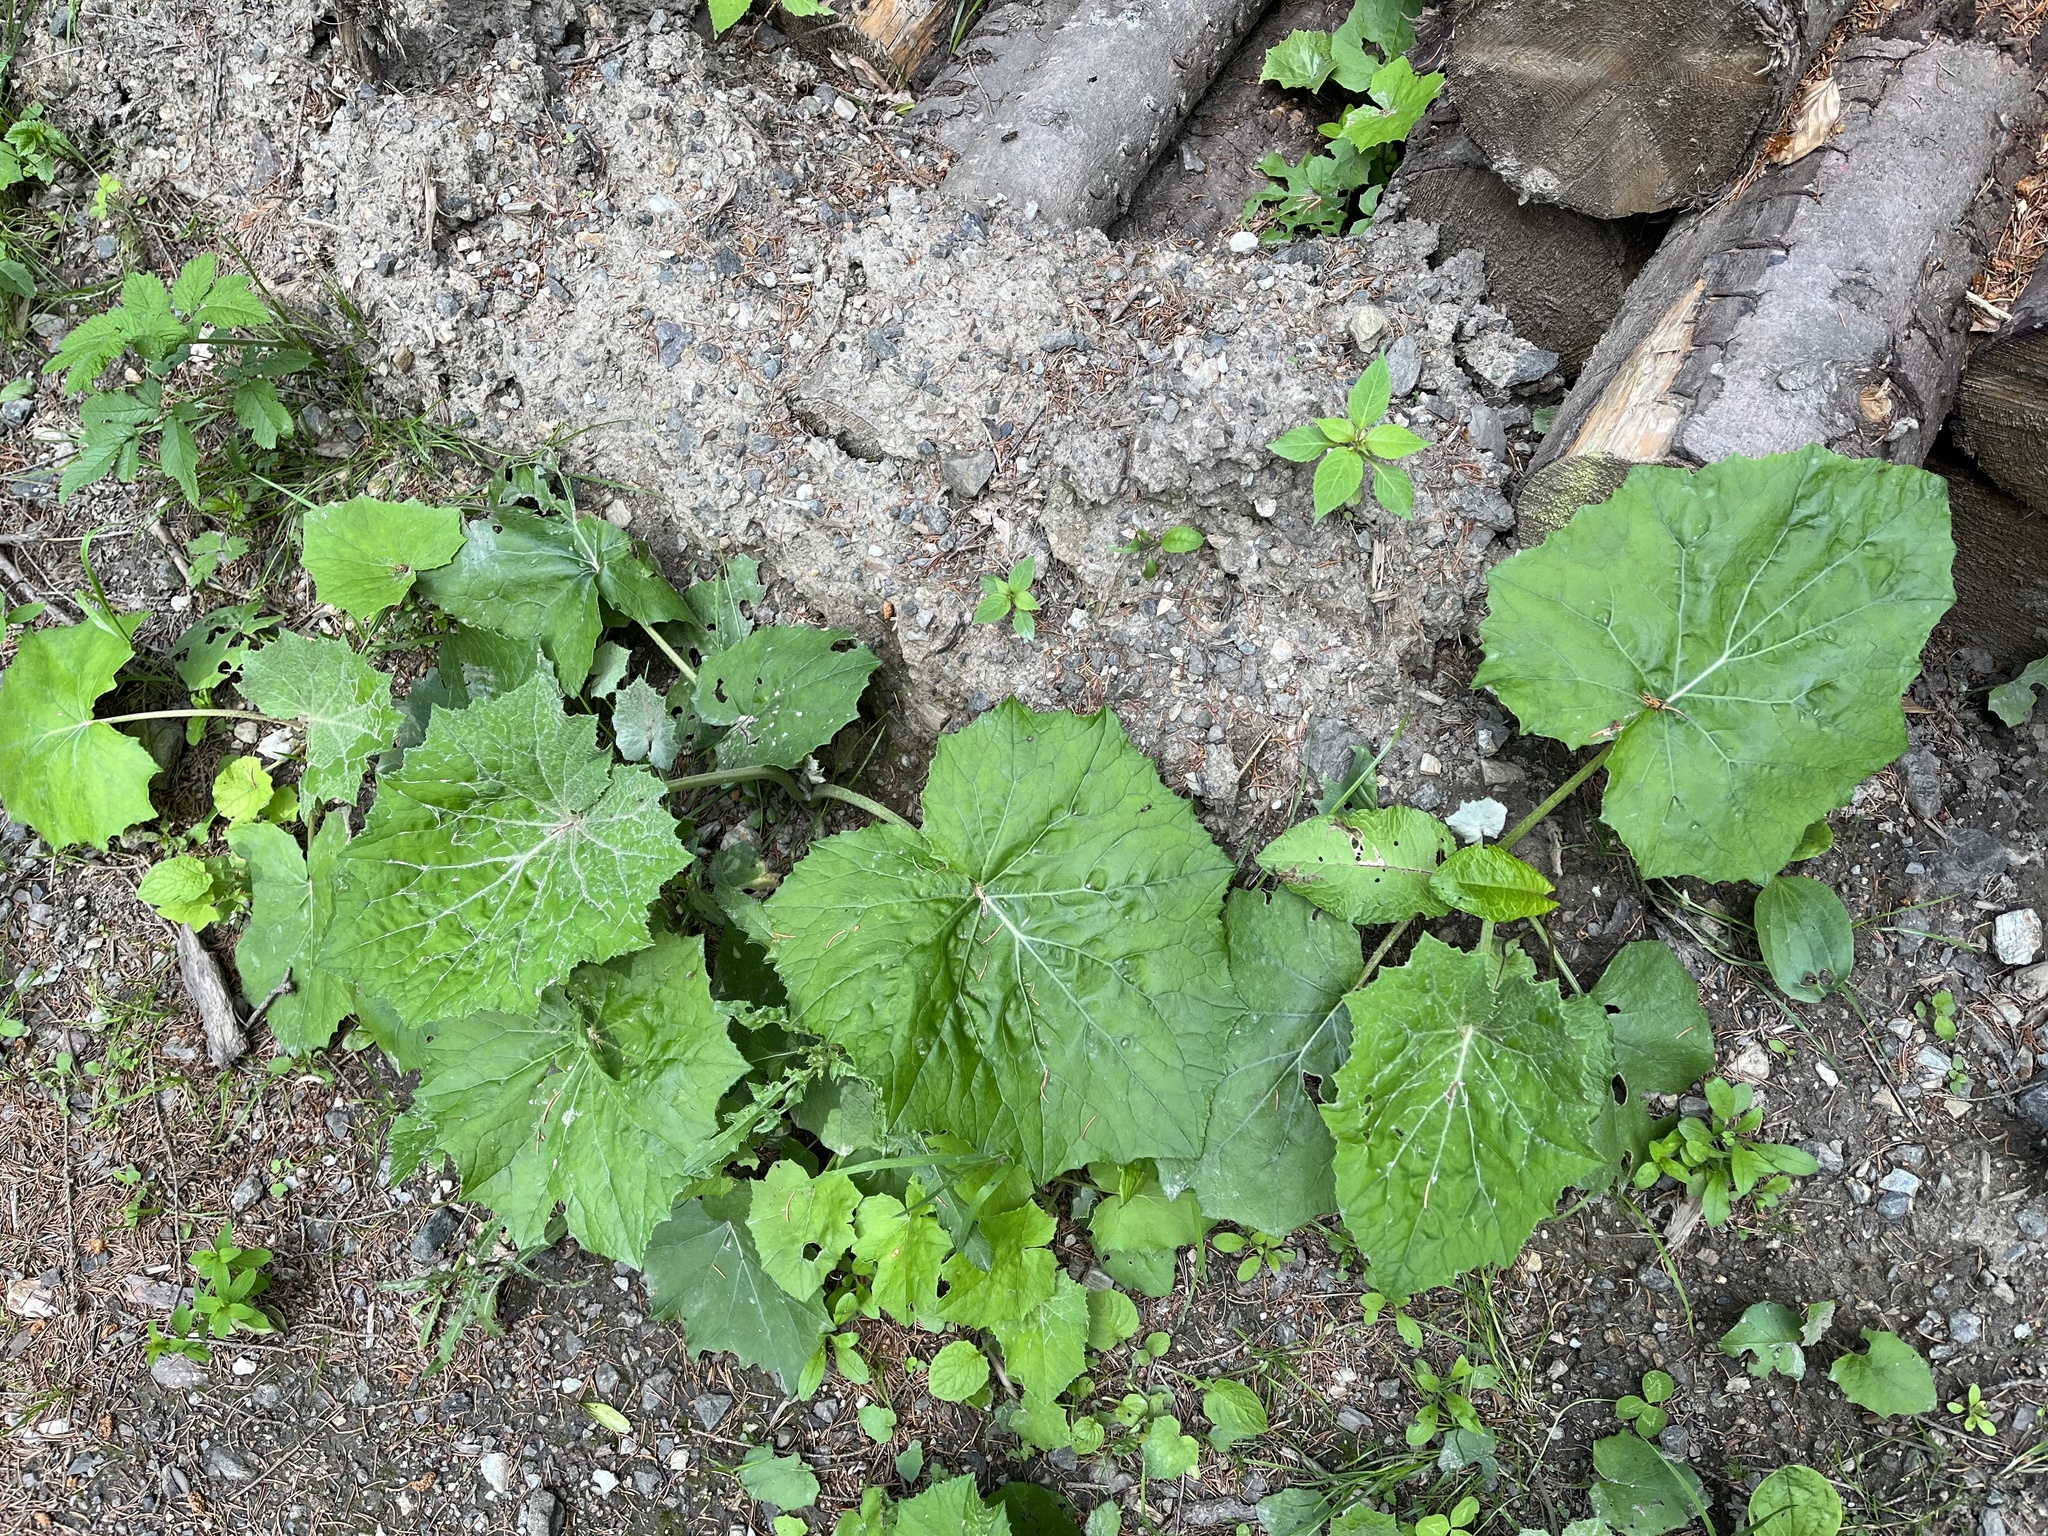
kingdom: Plantae
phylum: Tracheophyta
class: Magnoliopsida
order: Asterales
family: Asteraceae
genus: Tussilago
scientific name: Tussilago farfara
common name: Coltsfoot
